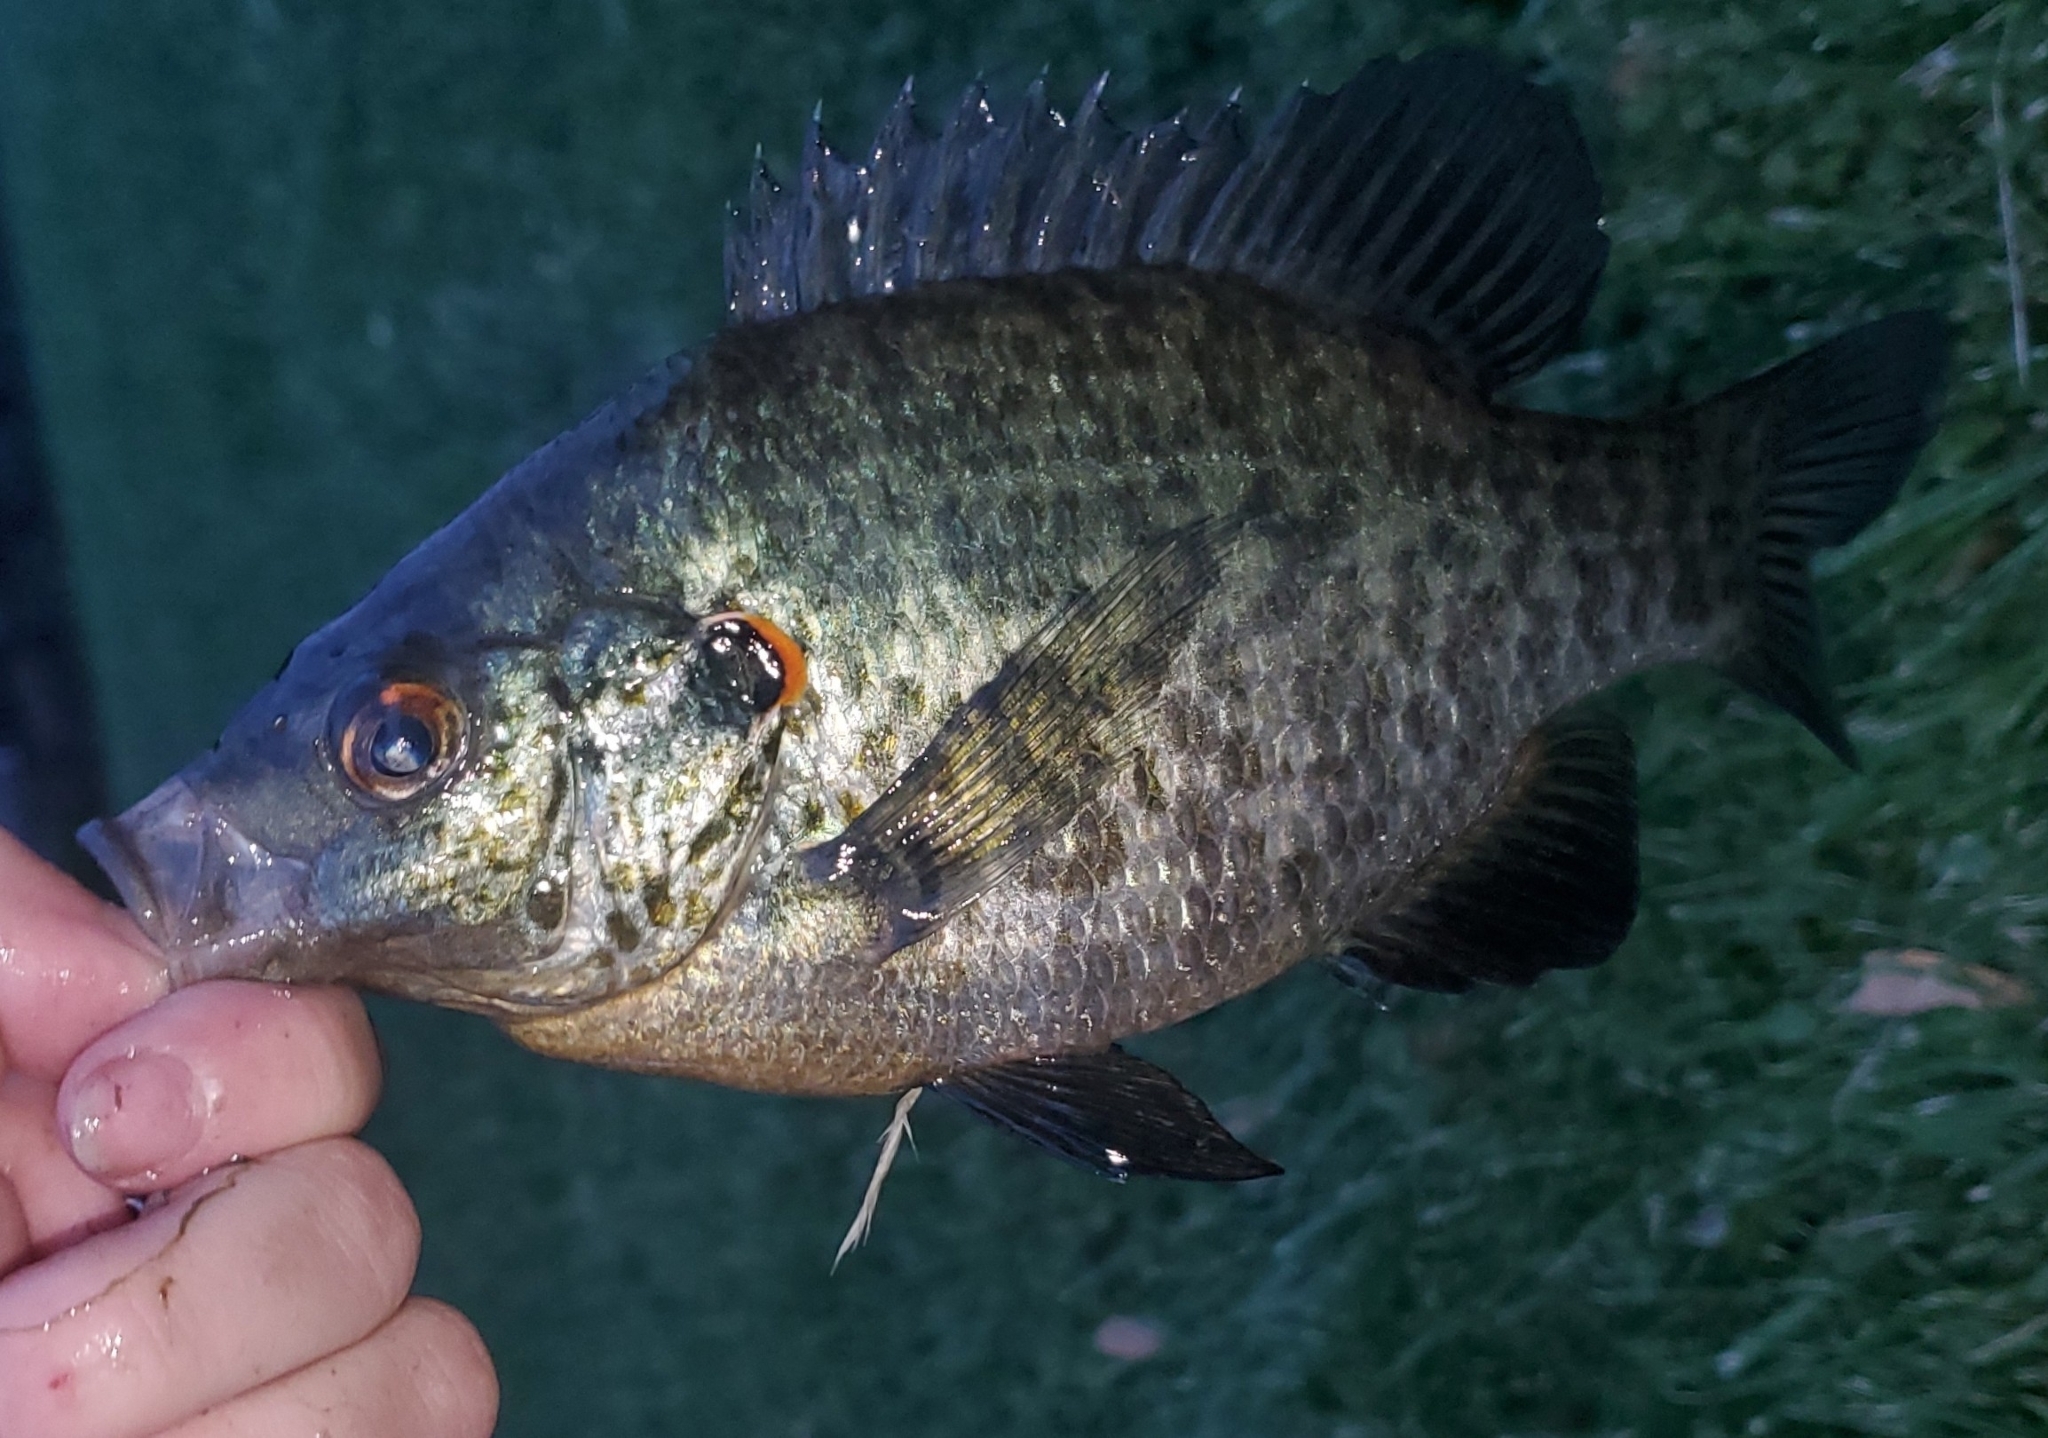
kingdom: Animalia
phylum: Chordata
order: Perciformes
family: Centrarchidae
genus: Lepomis
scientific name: Lepomis microlophus
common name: Redear sunfish
